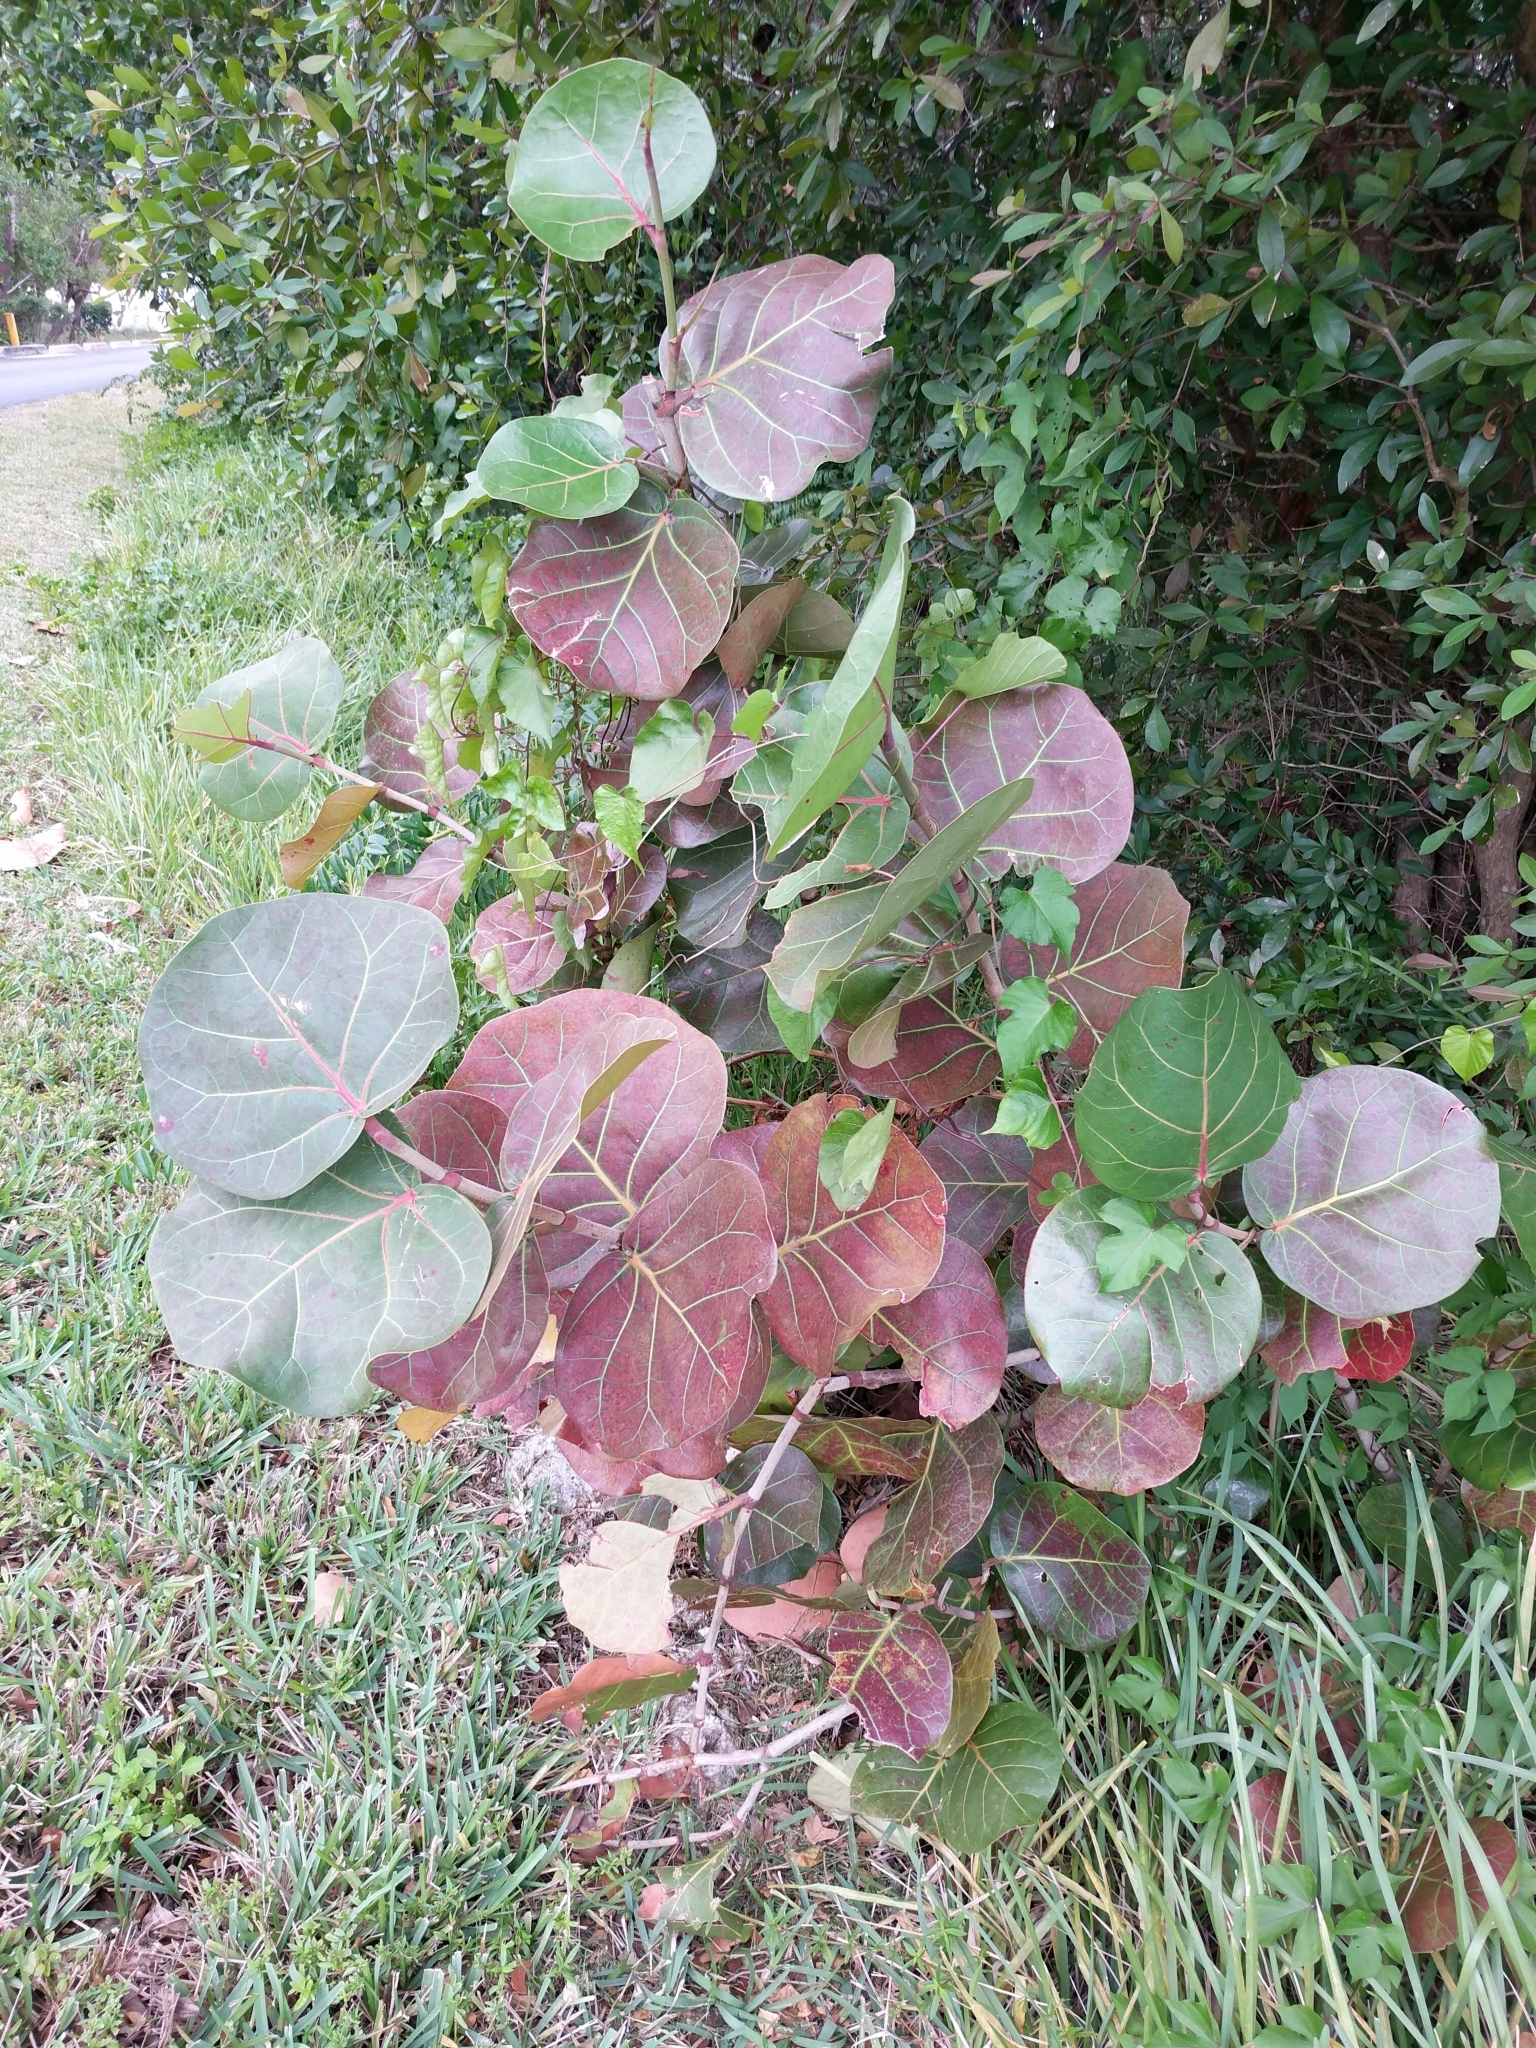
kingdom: Plantae
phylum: Tracheophyta
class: Magnoliopsida
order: Caryophyllales
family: Polygonaceae
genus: Coccoloba
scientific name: Coccoloba uvifera
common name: Seagrape
